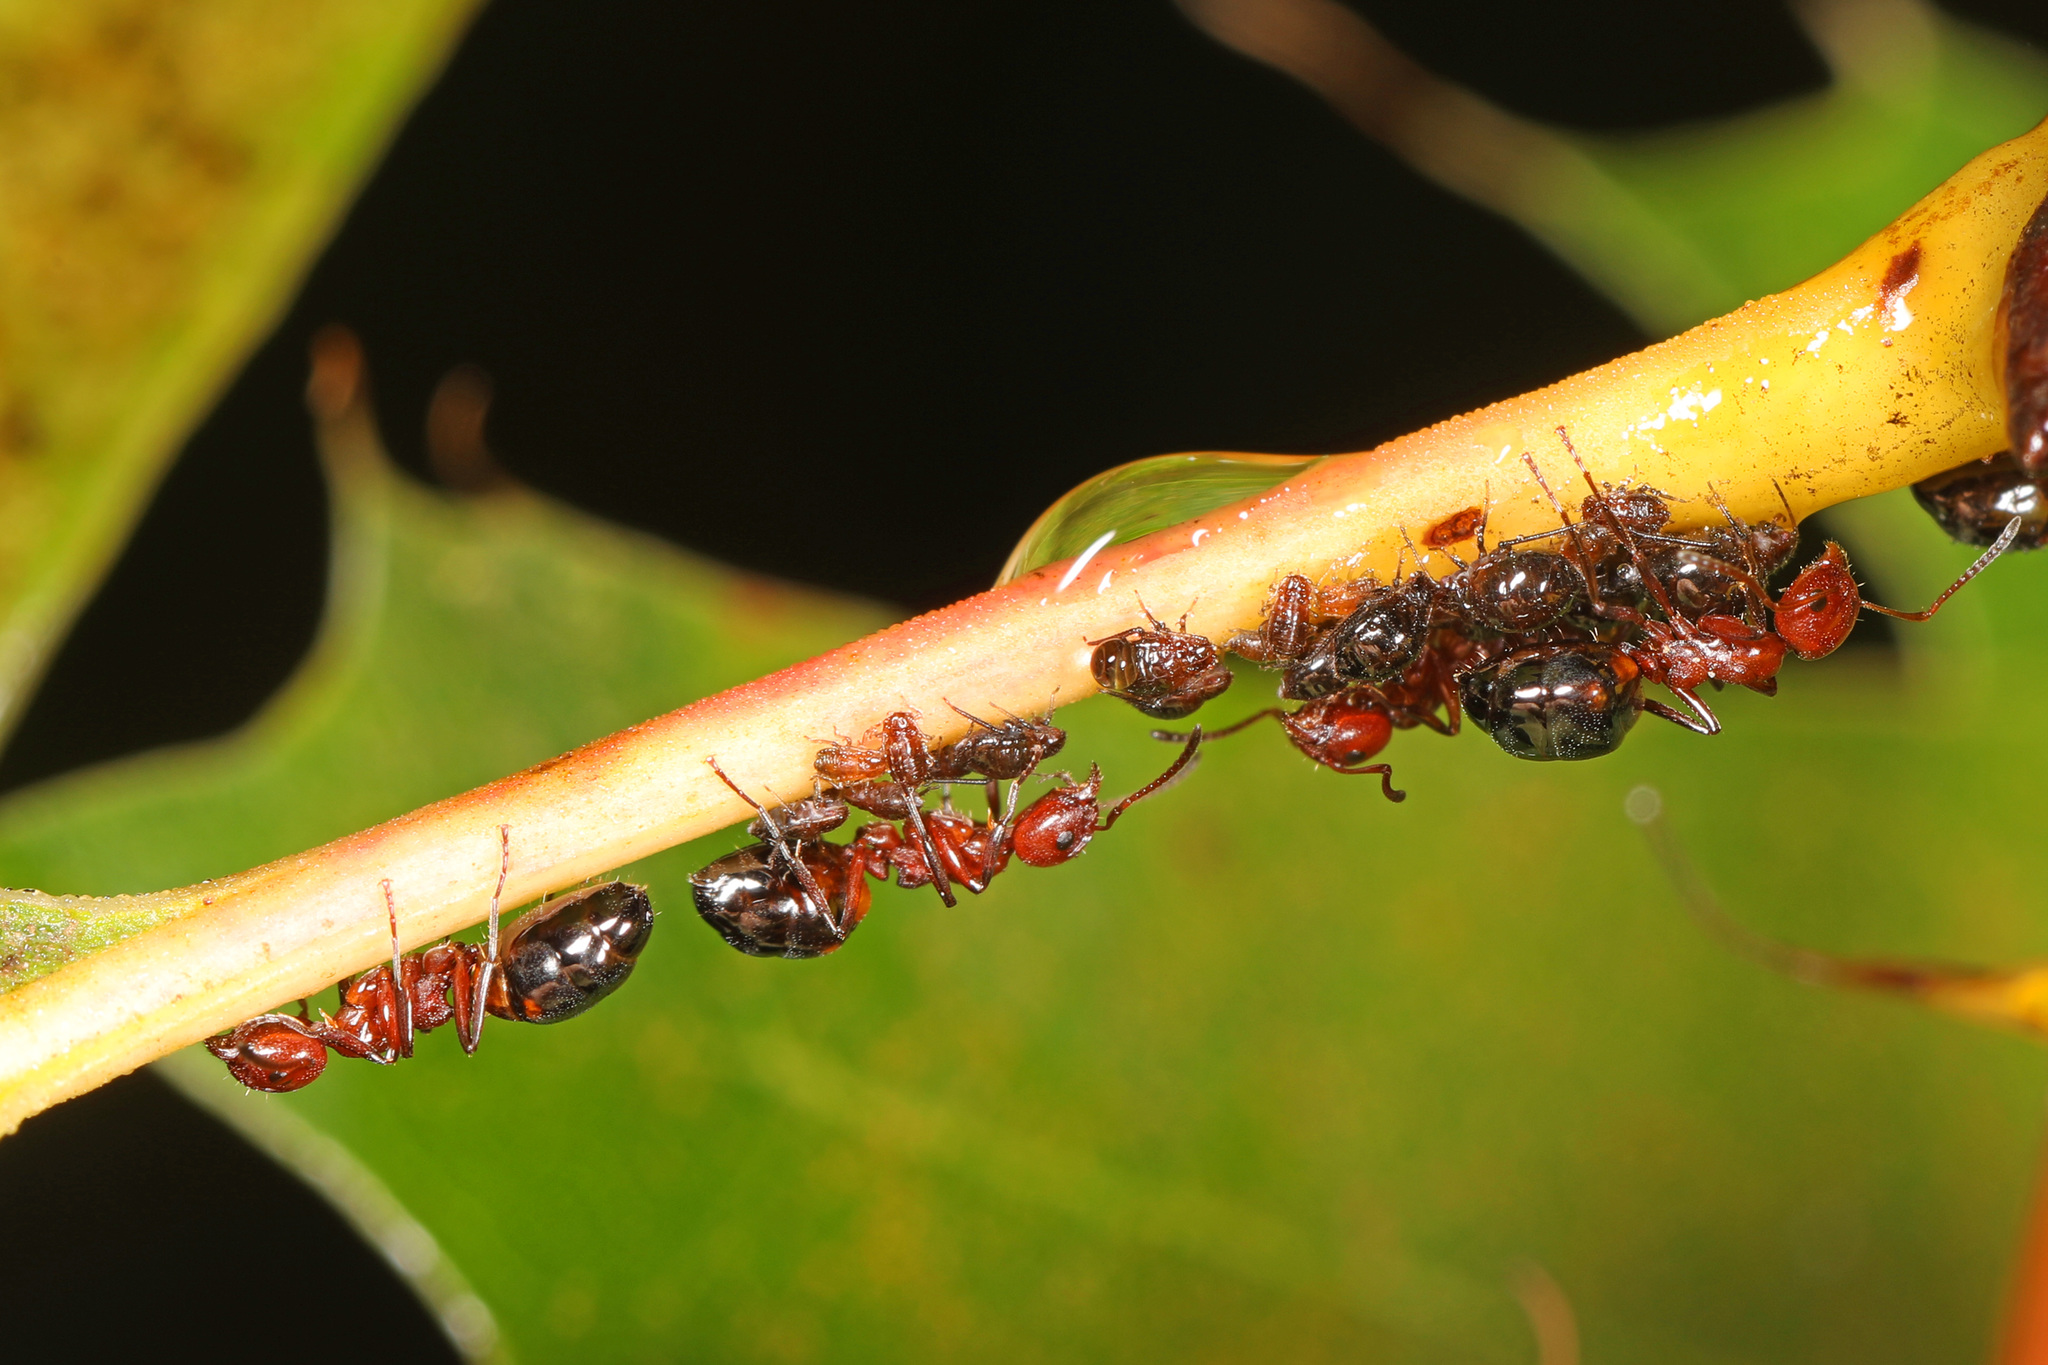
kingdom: Animalia
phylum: Arthropoda
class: Insecta
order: Hymenoptera
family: Formicidae
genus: Dolichoderus
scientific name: Dolichoderus mariae
